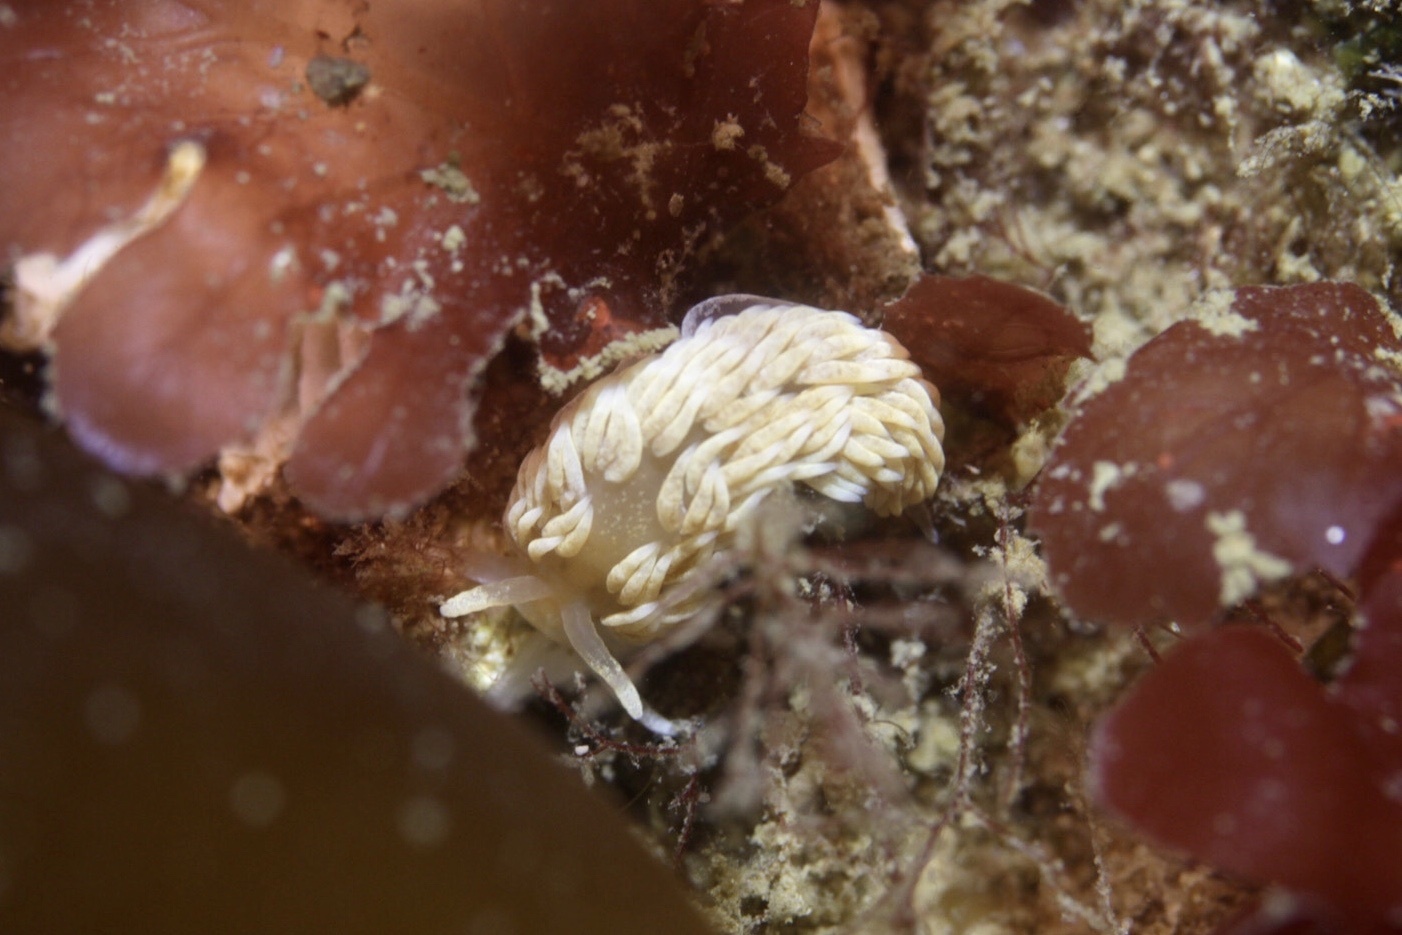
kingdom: Animalia
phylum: Mollusca
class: Gastropoda
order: Nudibranchia
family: Aeolidiidae
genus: Aeolidiella
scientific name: Aeolidiella glauca
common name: Orange-brown aeolid
